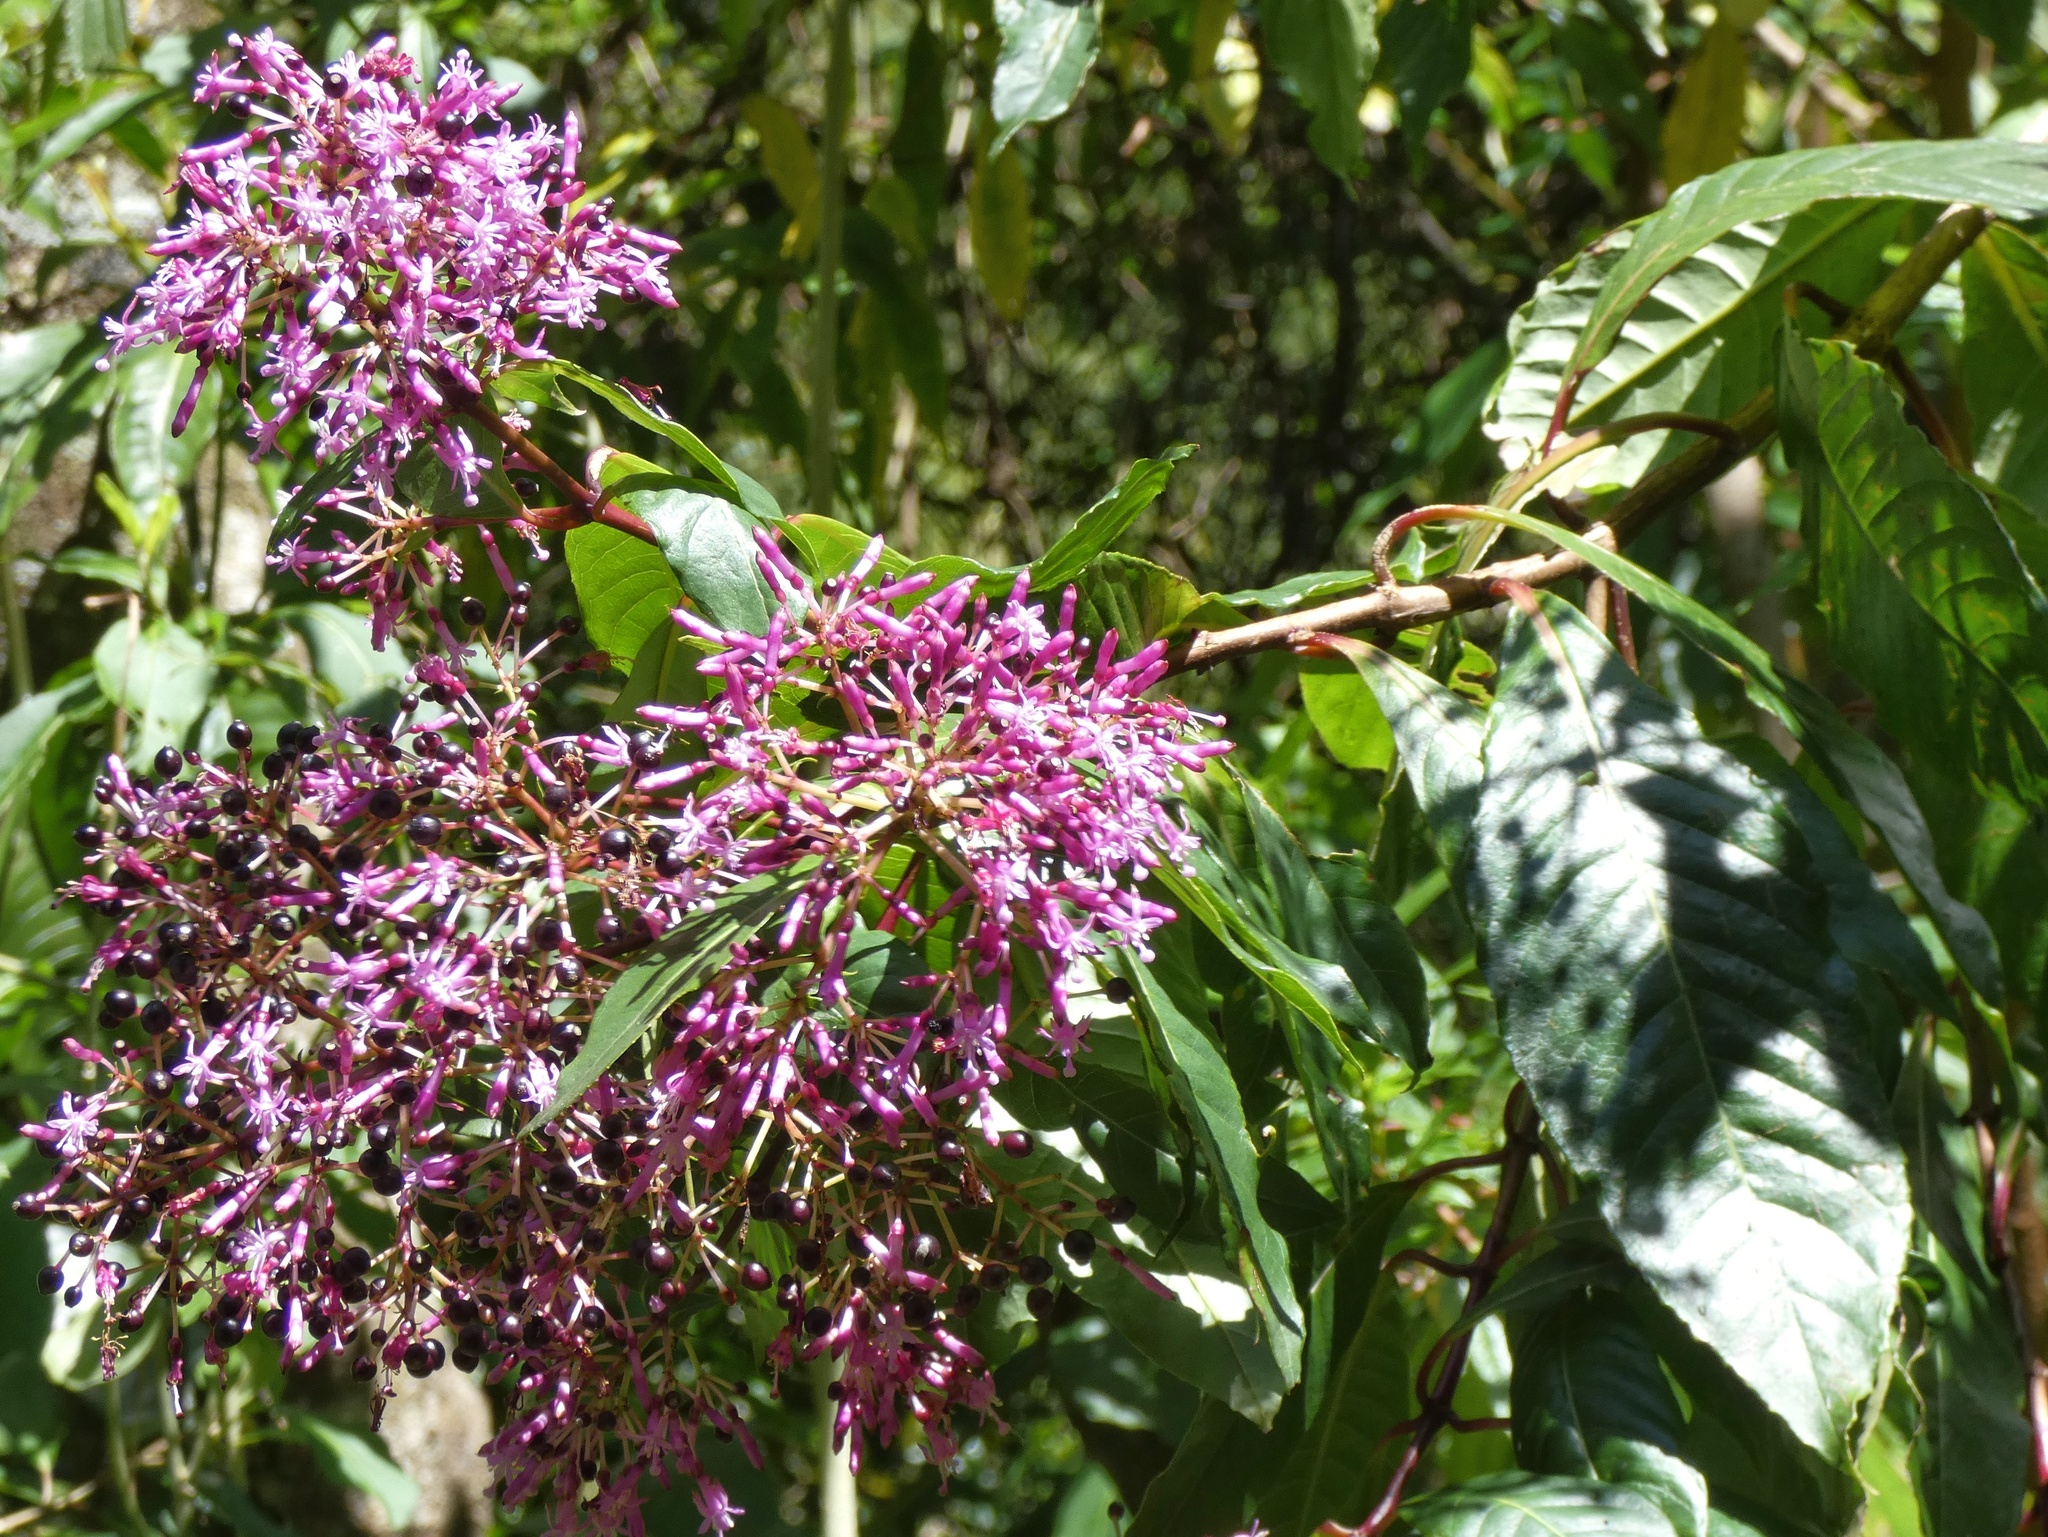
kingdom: Plantae
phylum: Tracheophyta
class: Magnoliopsida
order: Myrtales
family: Onagraceae
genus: Fuchsia
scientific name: Fuchsia paniculata
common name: Shrubby fuchsia
